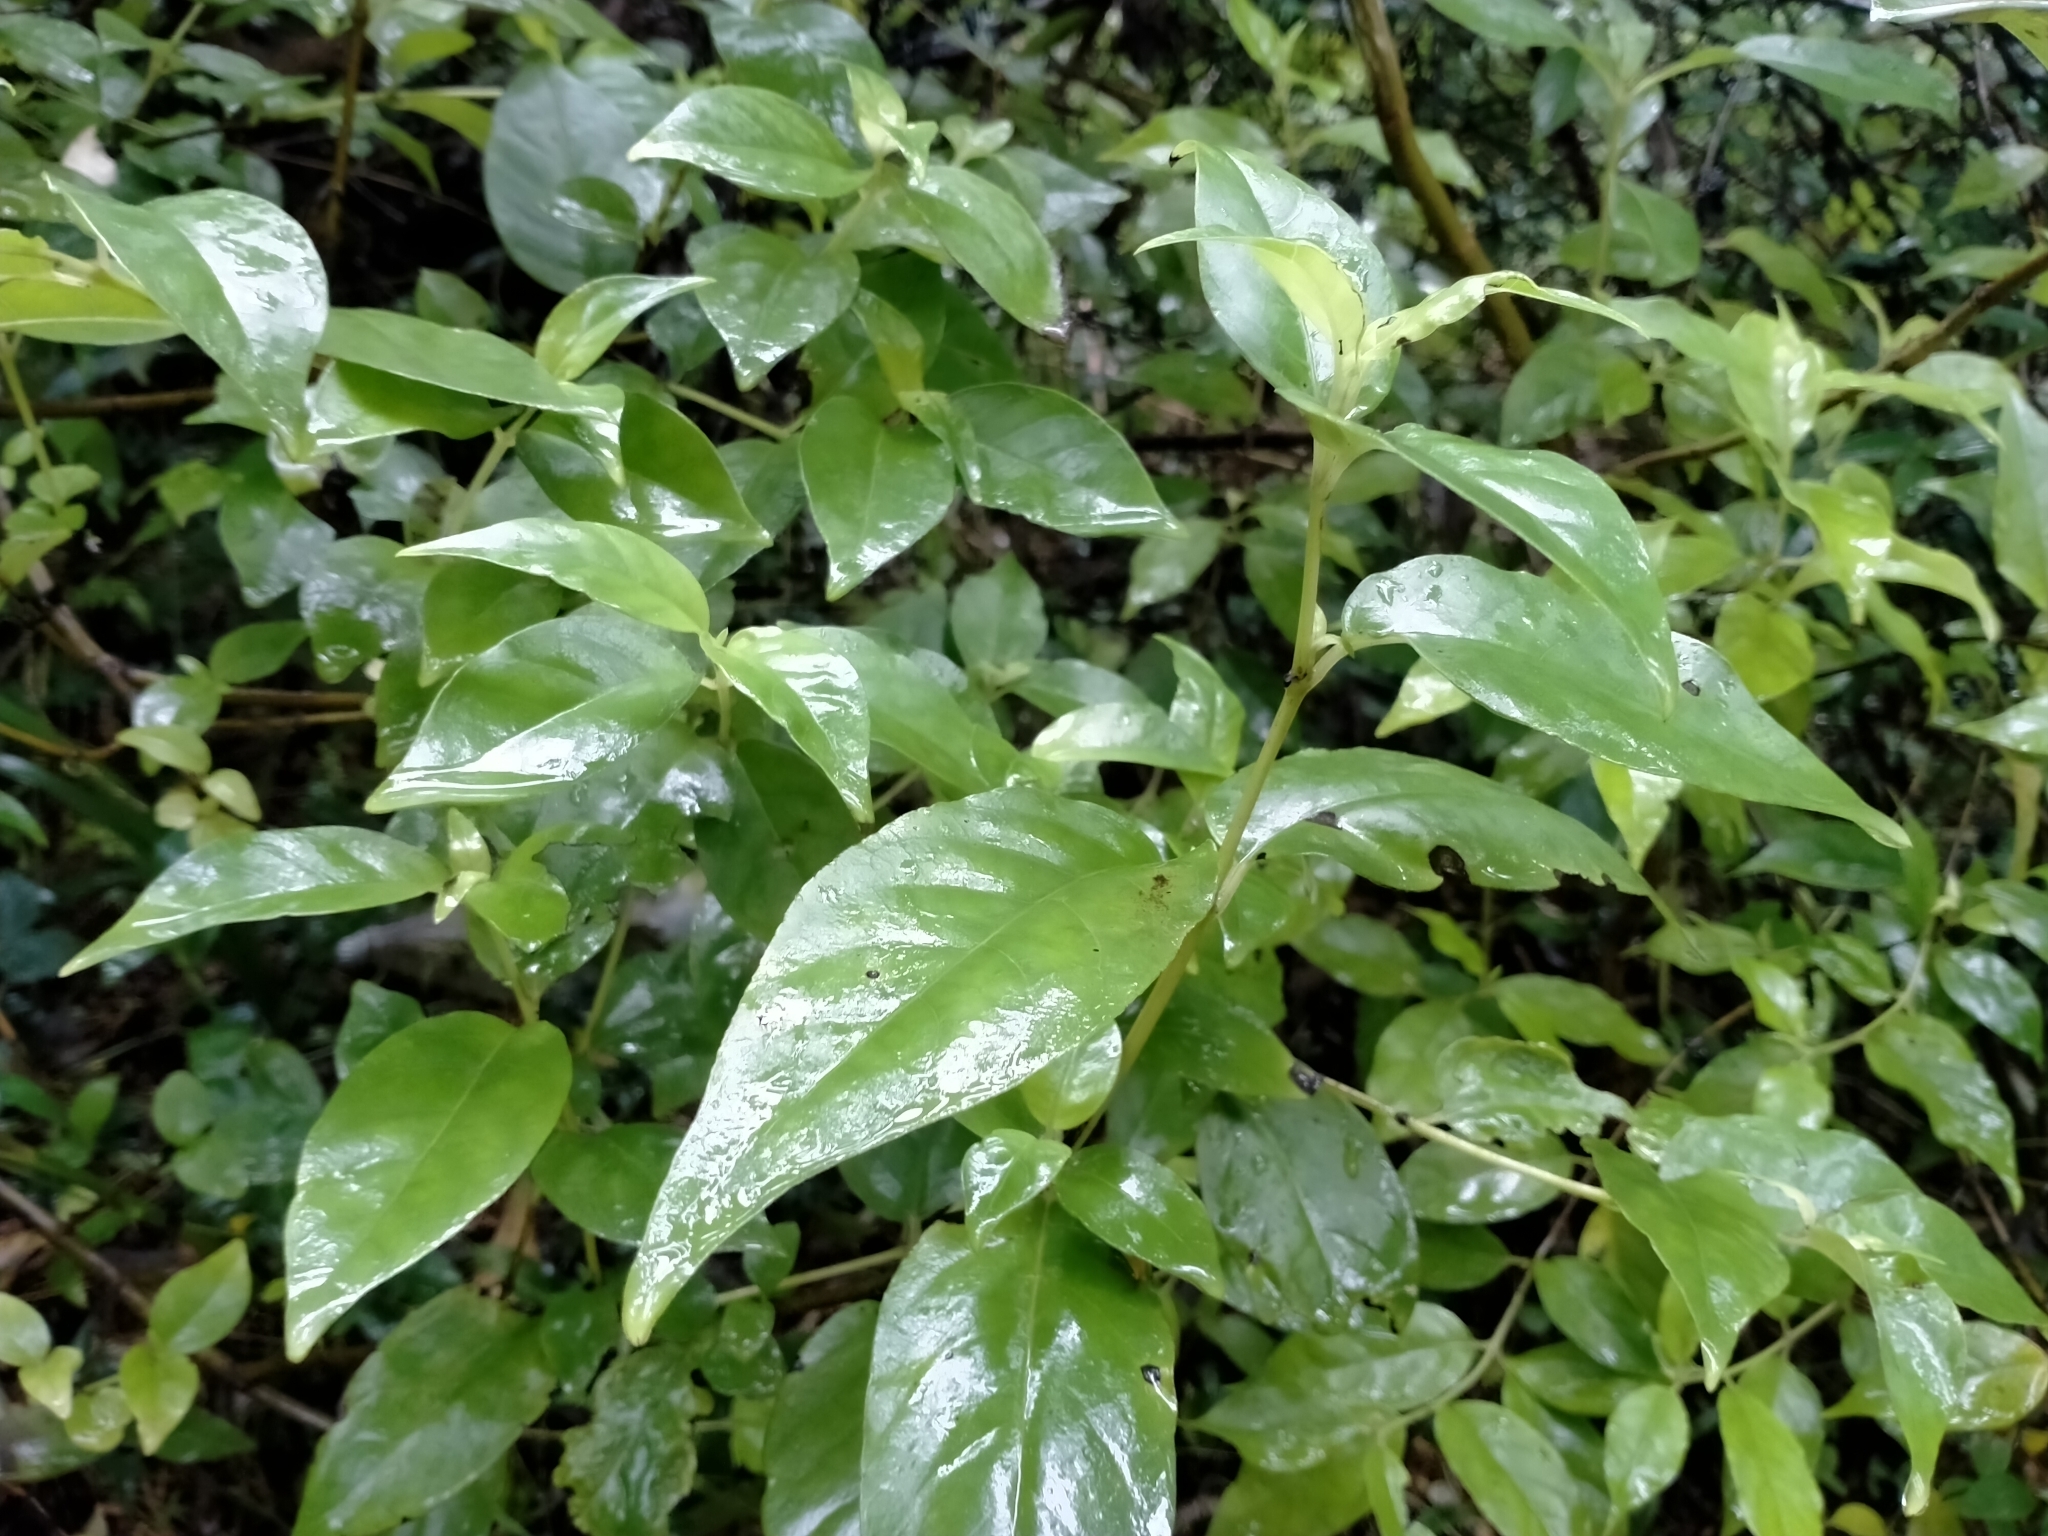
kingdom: Plantae
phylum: Tracheophyta
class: Magnoliopsida
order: Gentianales
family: Loganiaceae
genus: Geniostoma
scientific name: Geniostoma ligustrifolium
